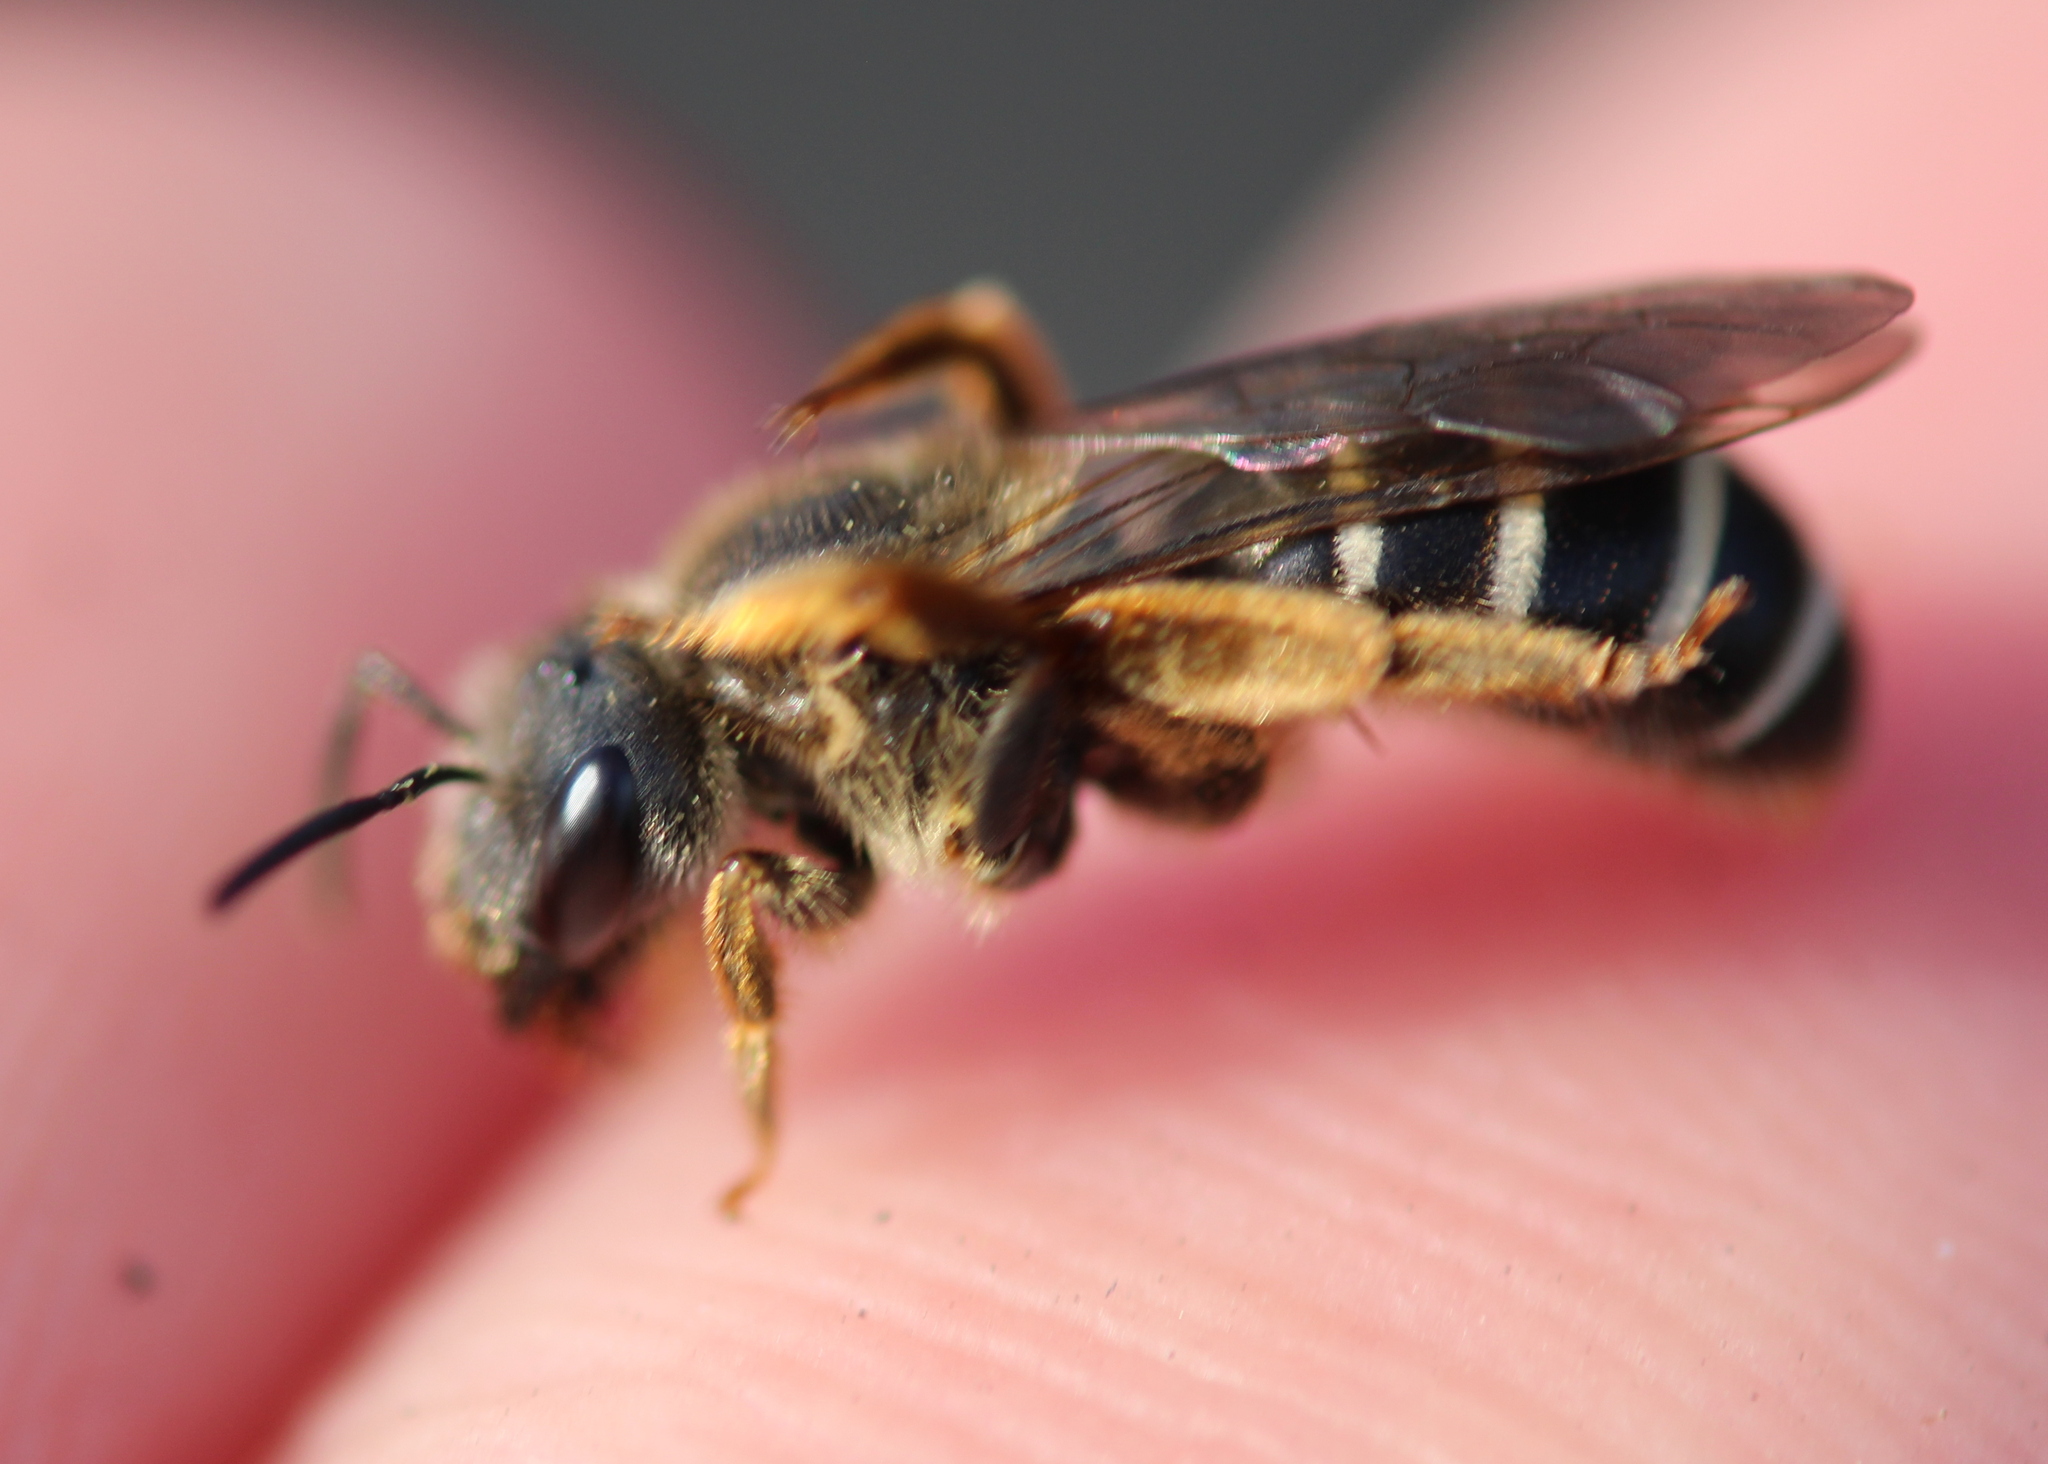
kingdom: Animalia
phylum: Arthropoda
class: Insecta
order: Hymenoptera
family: Halictidae
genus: Halictus
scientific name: Halictus rubicundus
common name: Orange-legged furrow bee
